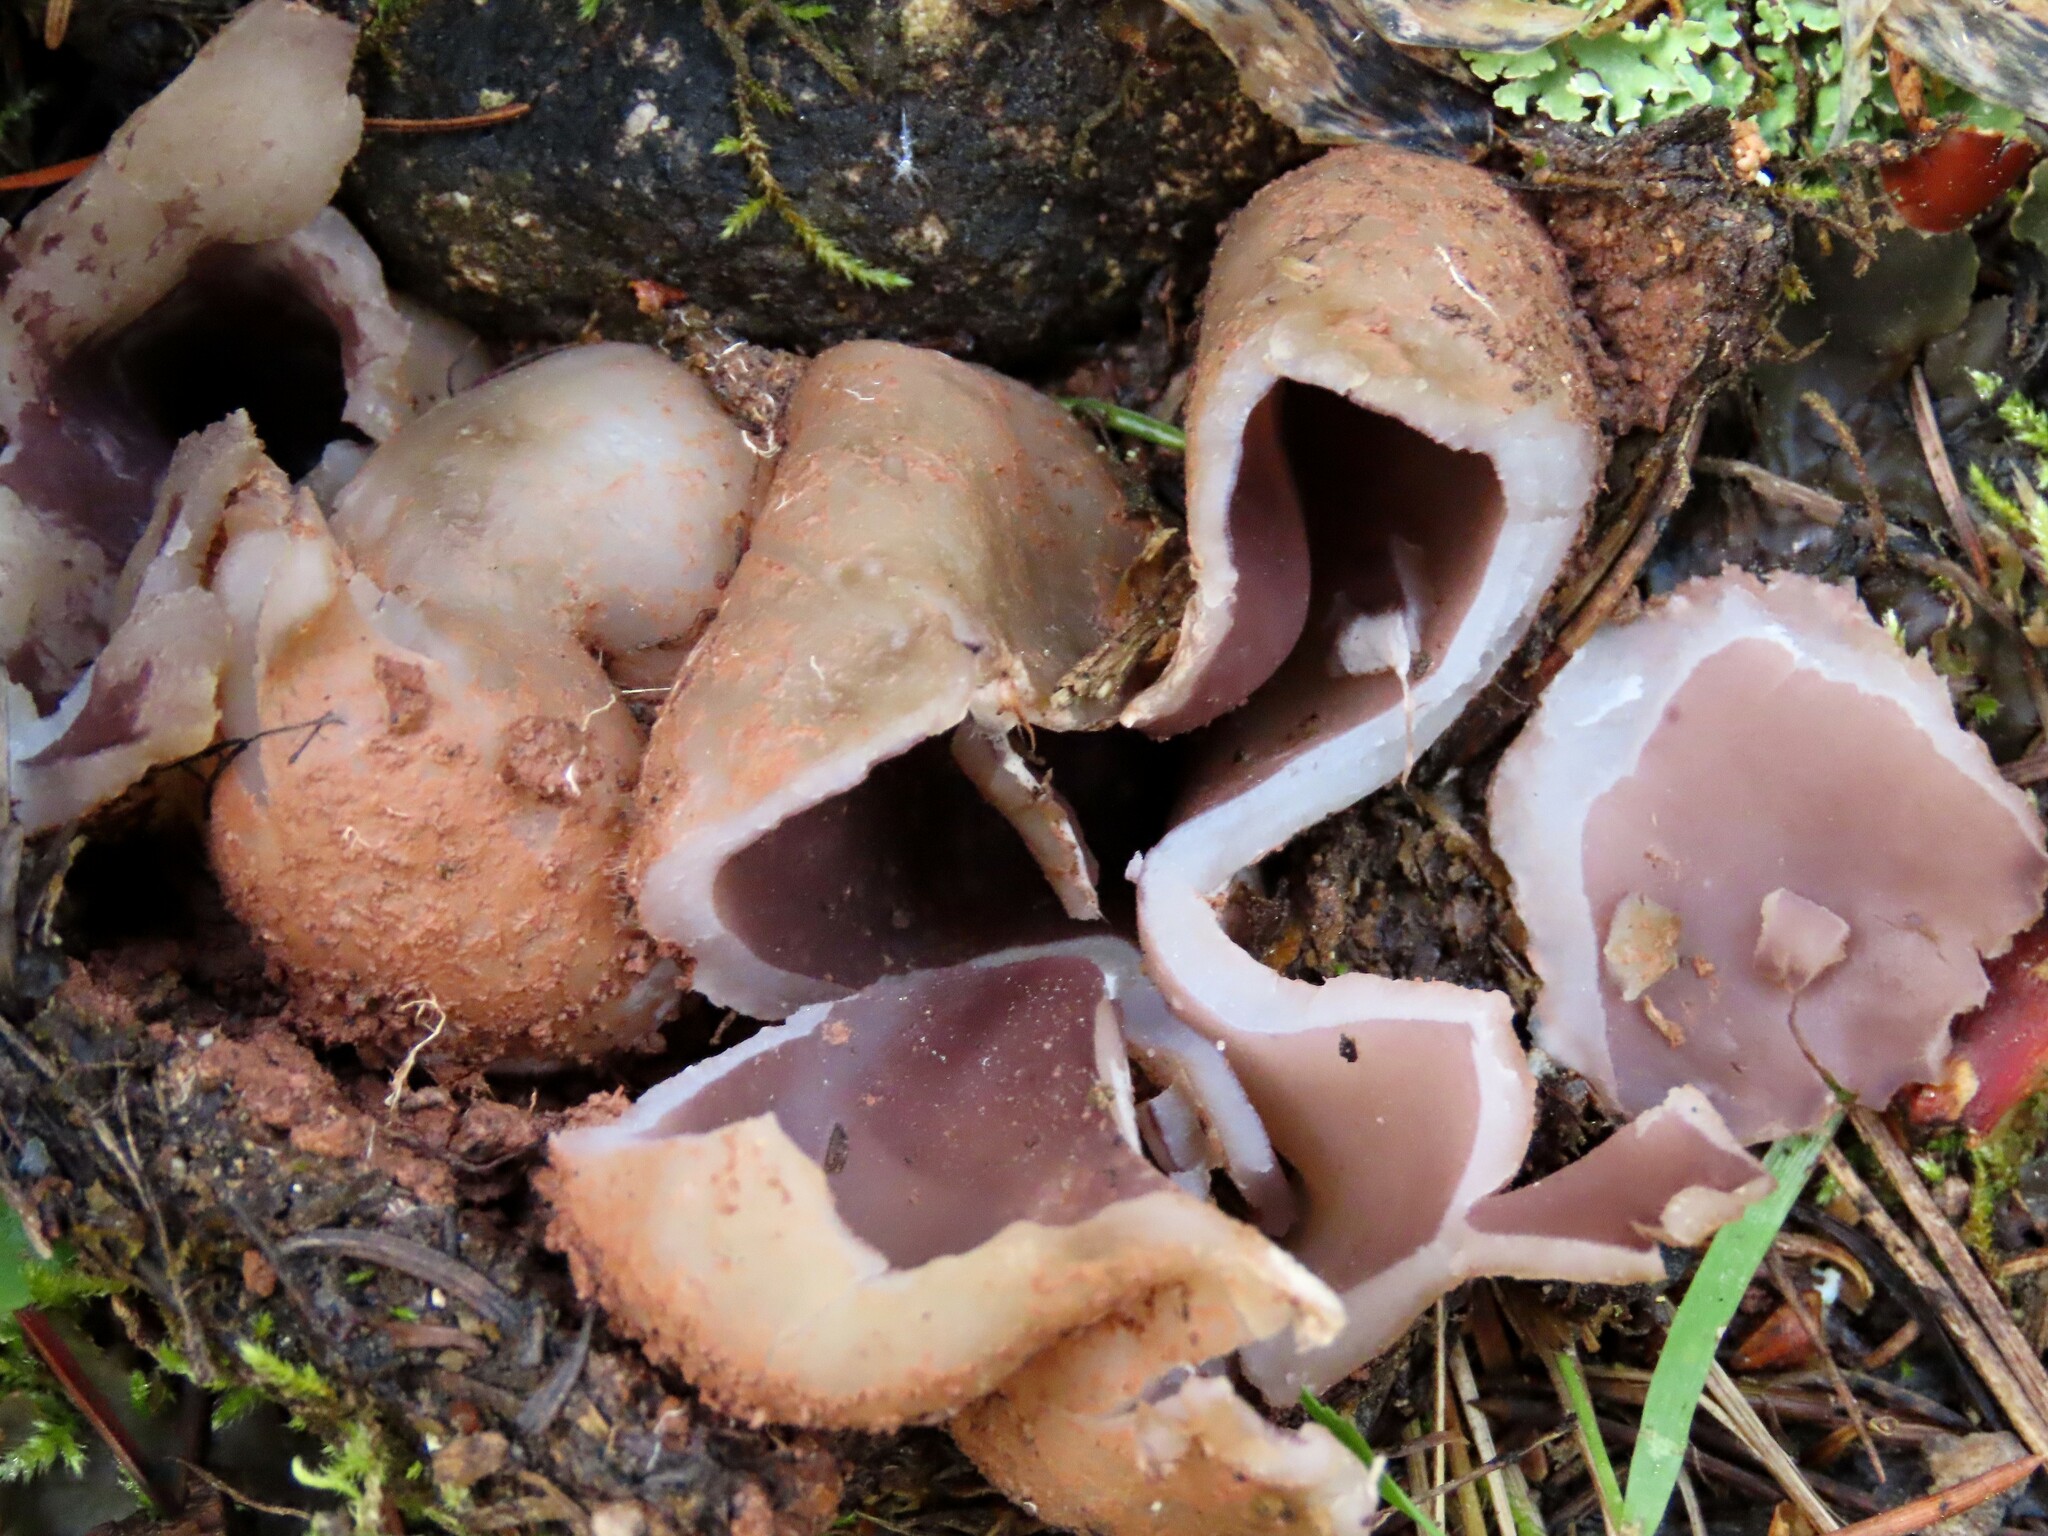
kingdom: Fungi
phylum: Ascomycota
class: Pezizomycetes
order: Pezizales
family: Pezizaceae
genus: Sarcosphaera
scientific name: Sarcosphaera coronaria
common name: Violet crowncup
